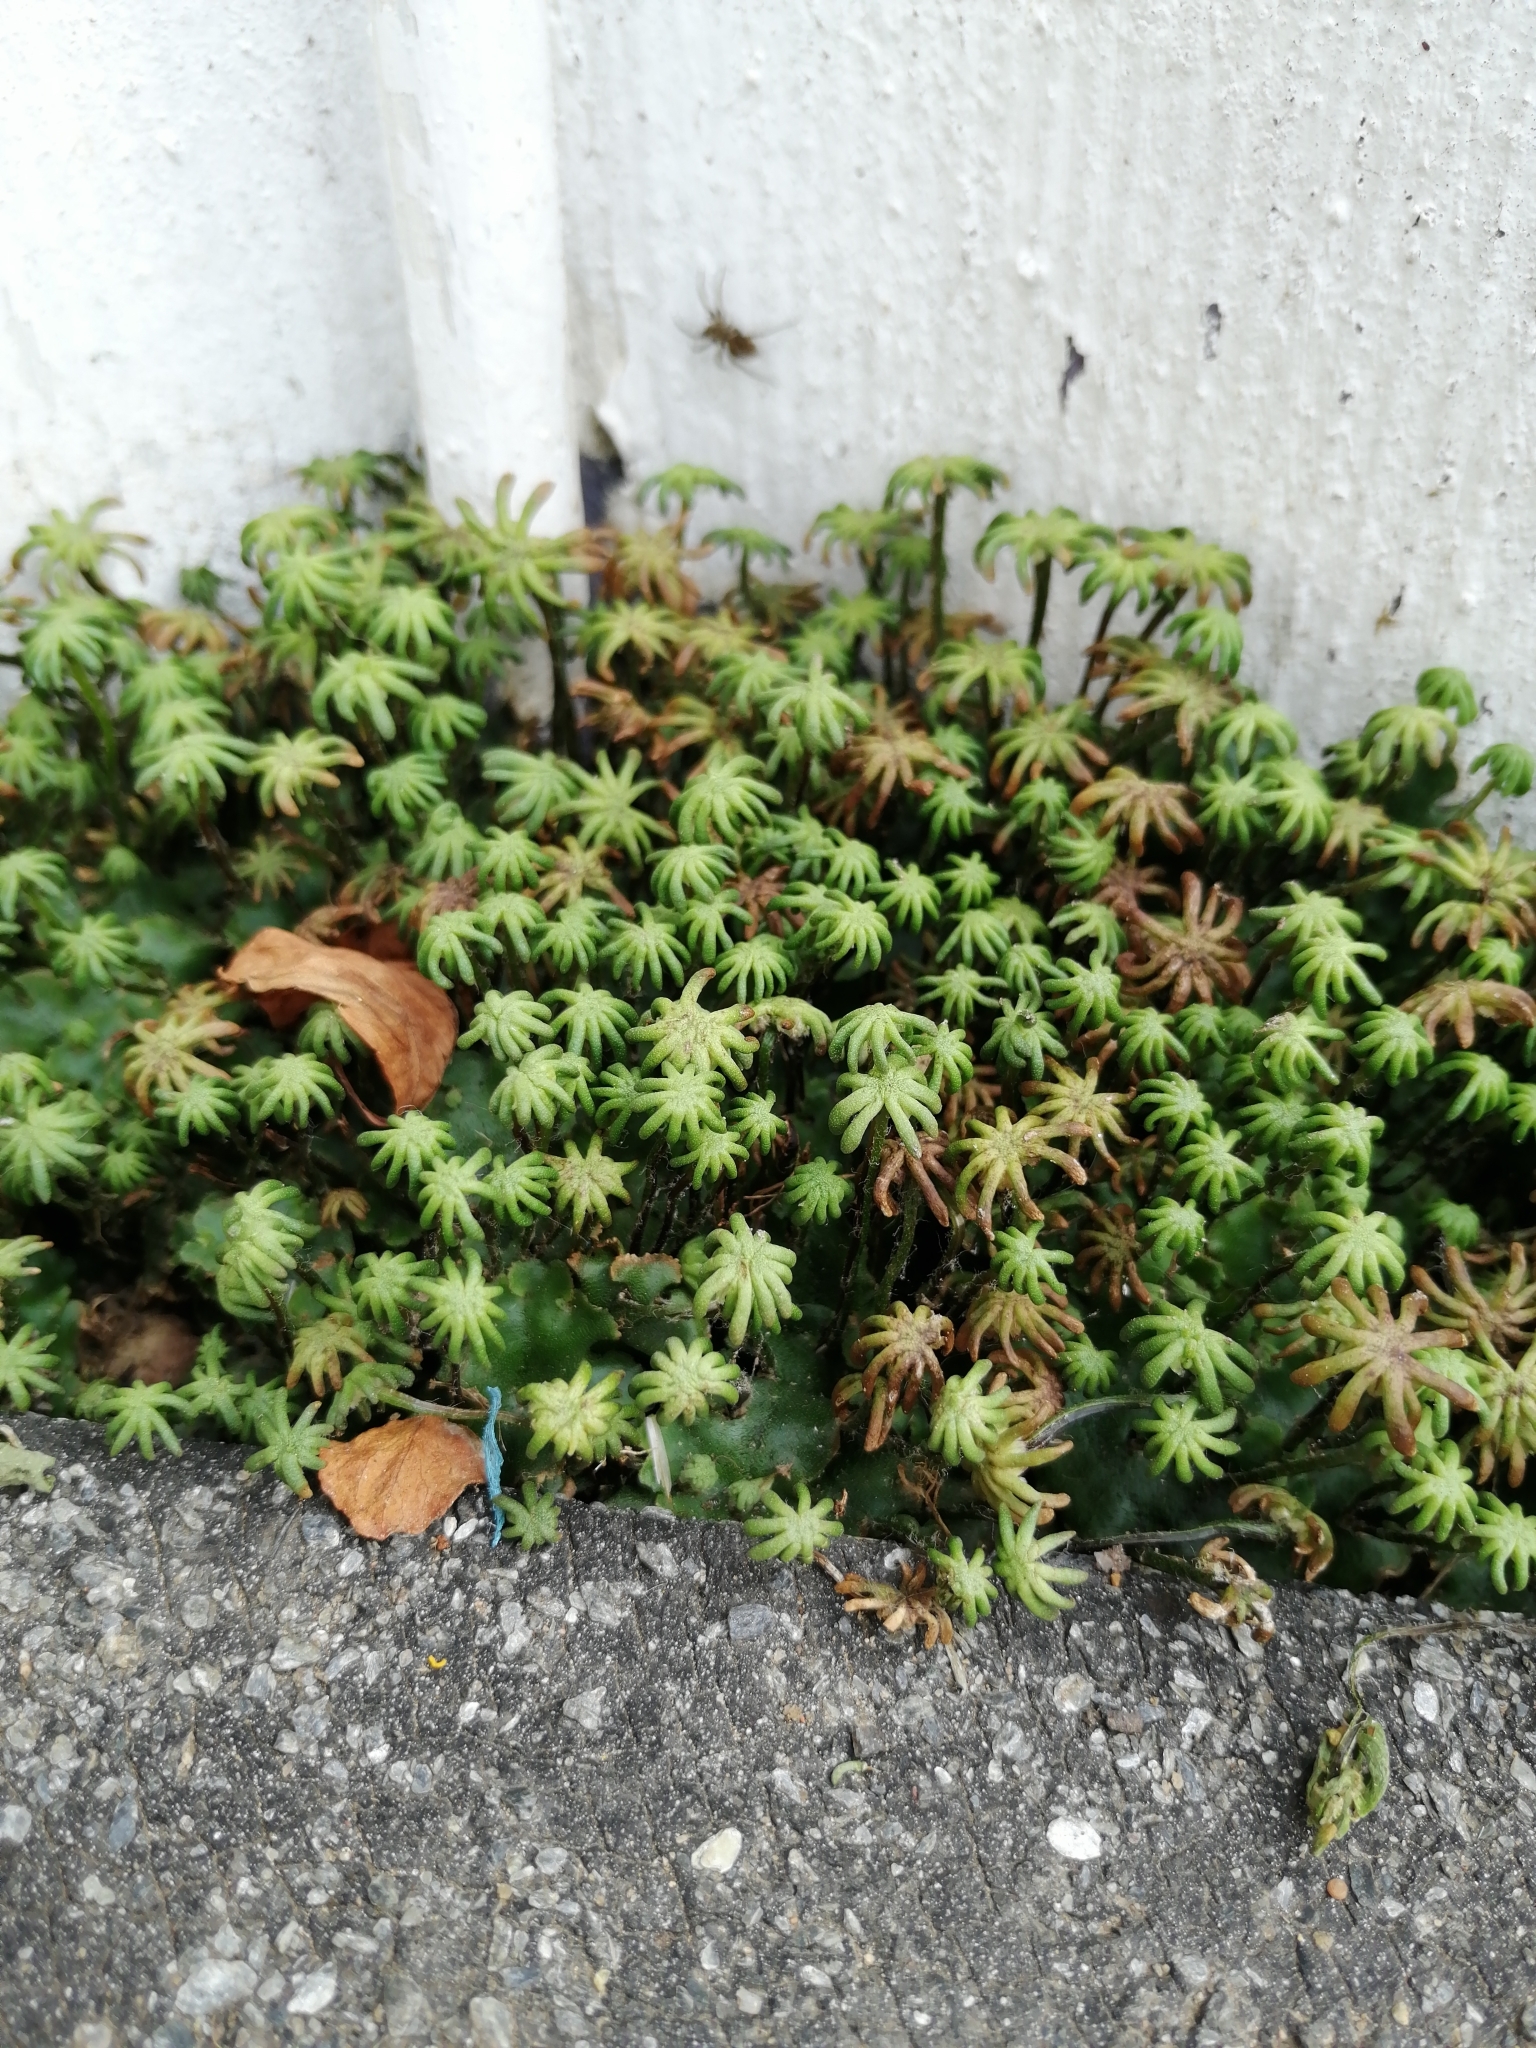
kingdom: Plantae
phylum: Marchantiophyta
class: Marchantiopsida
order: Marchantiales
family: Marchantiaceae
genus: Marchantia
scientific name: Marchantia polymorpha
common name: Common liverwort
